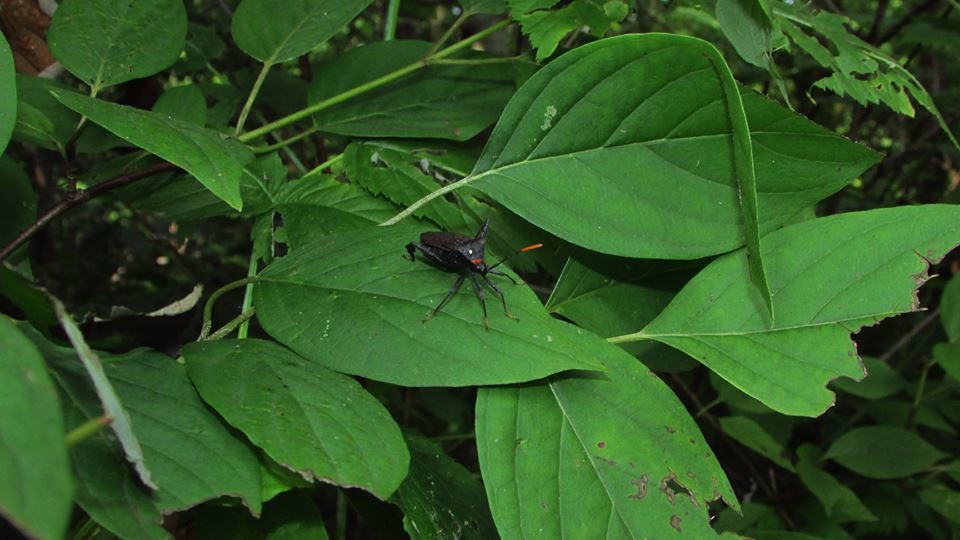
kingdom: Animalia
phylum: Arthropoda
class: Insecta
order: Hemiptera
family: Coreidae
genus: Acanthocephala
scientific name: Acanthocephala terminalis
